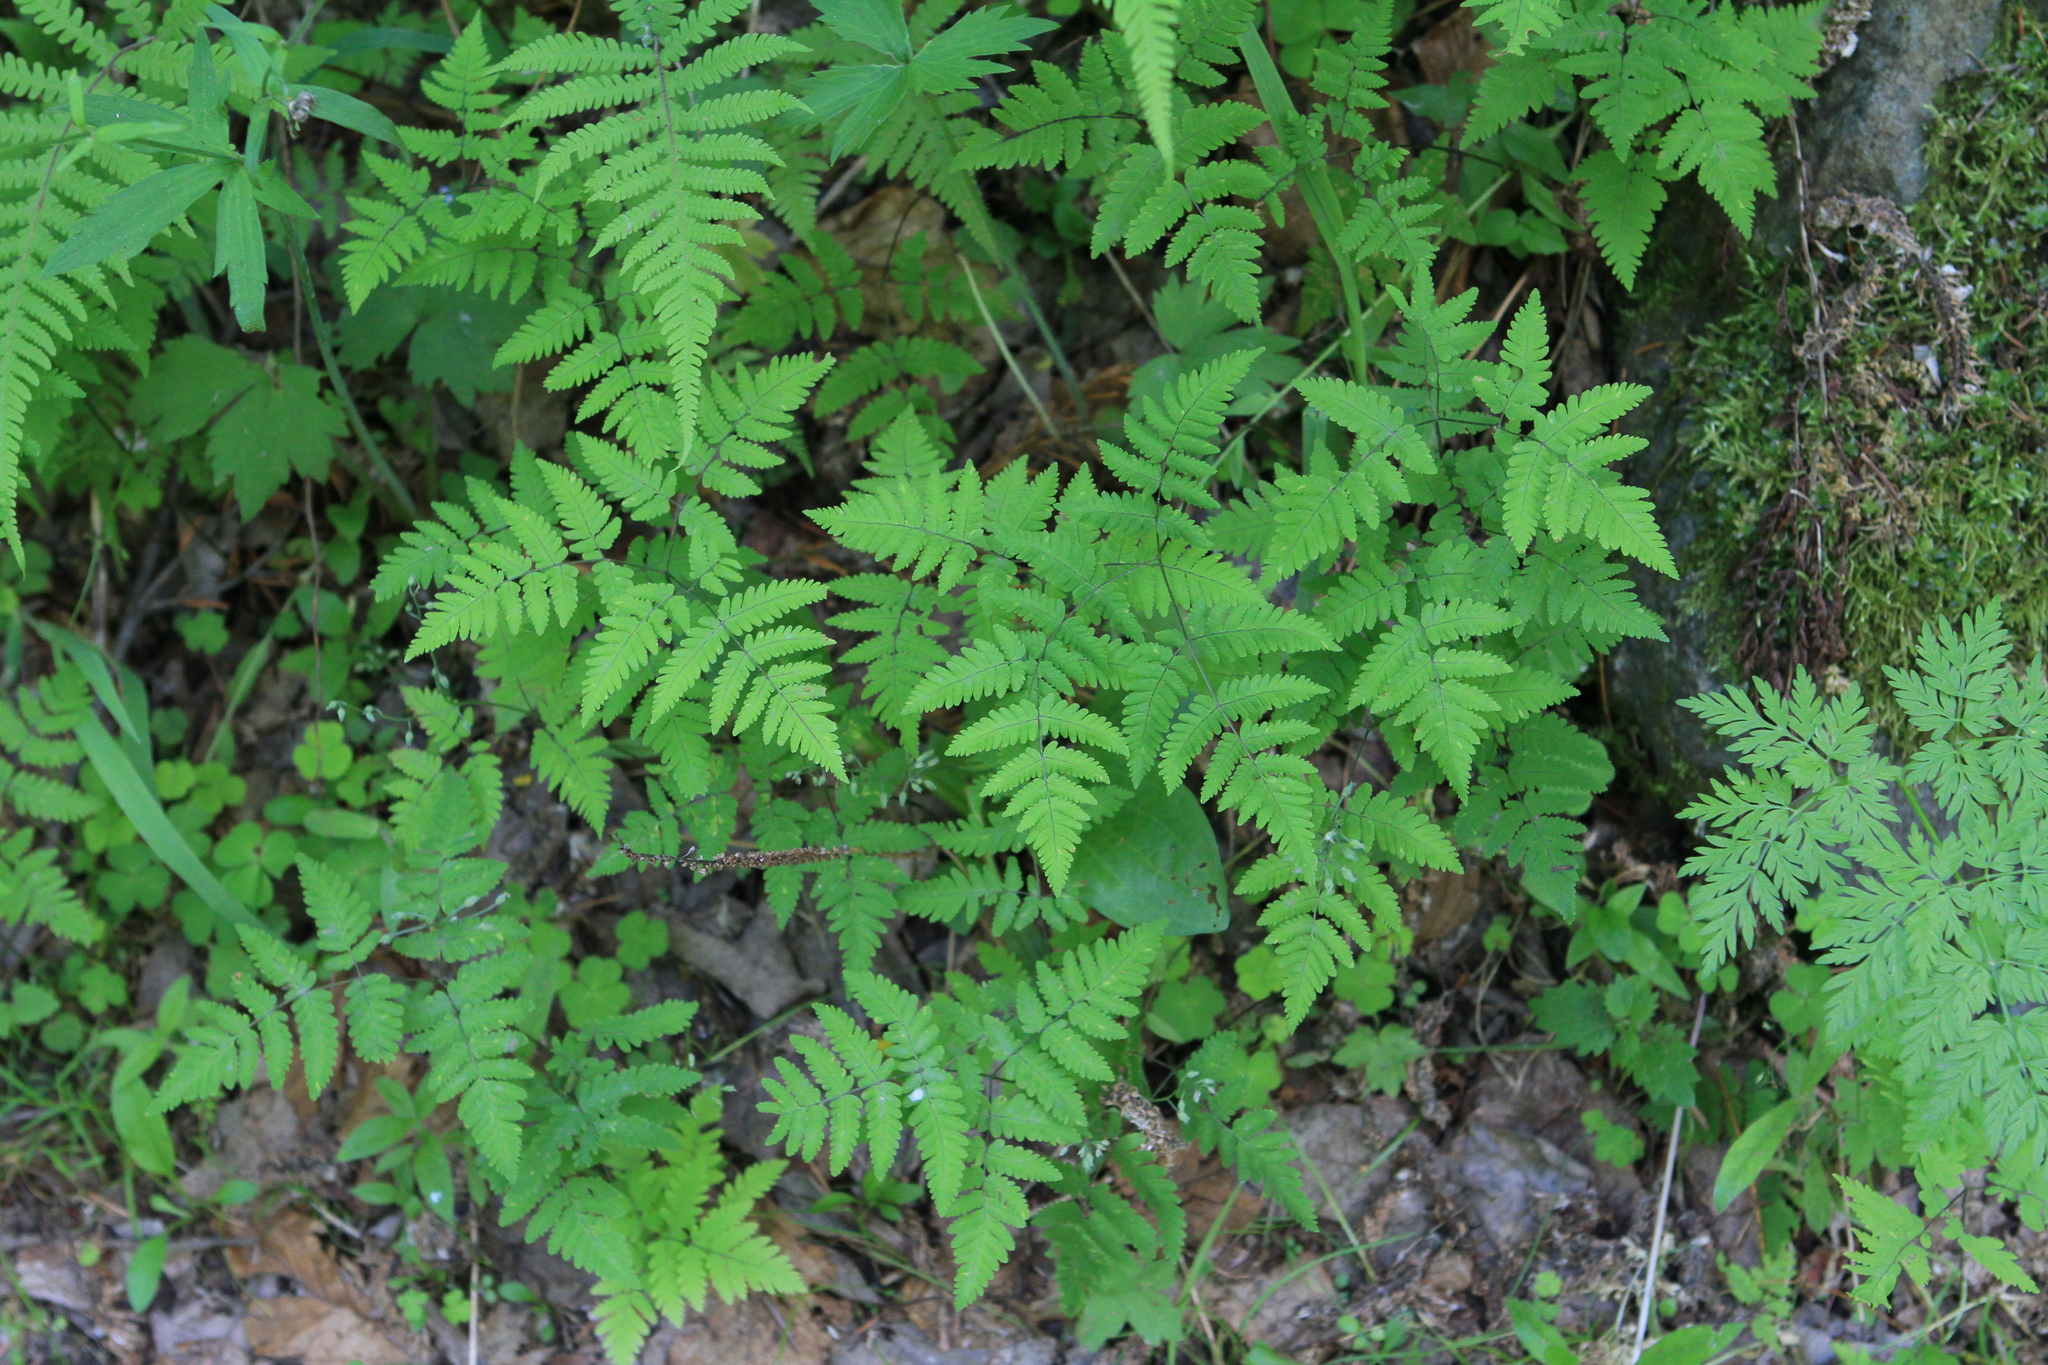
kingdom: Plantae
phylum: Tracheophyta
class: Polypodiopsida
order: Polypodiales
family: Cystopteridaceae
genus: Gymnocarpium
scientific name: Gymnocarpium dryopteris
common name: Oak fern
